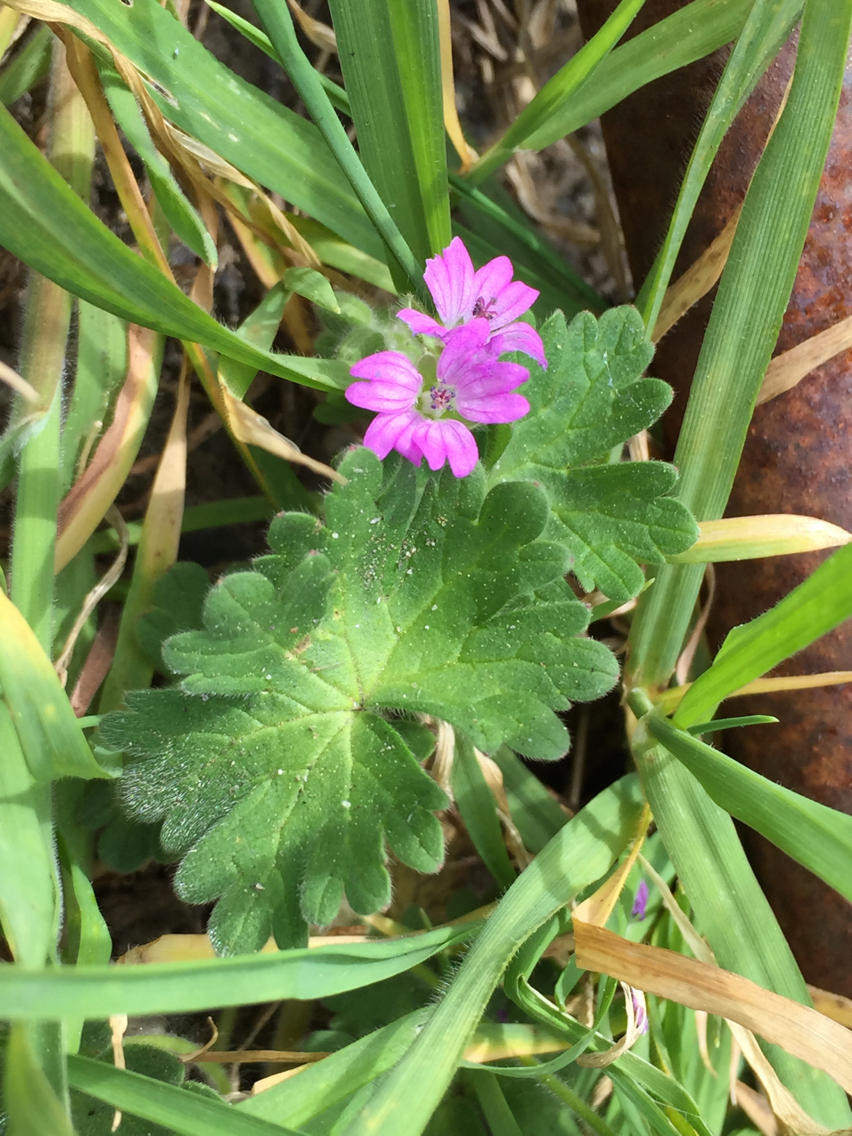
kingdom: Plantae
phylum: Tracheophyta
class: Magnoliopsida
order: Geraniales
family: Geraniaceae
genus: Geranium
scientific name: Geranium molle
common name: Dove's-foot crane's-bill
